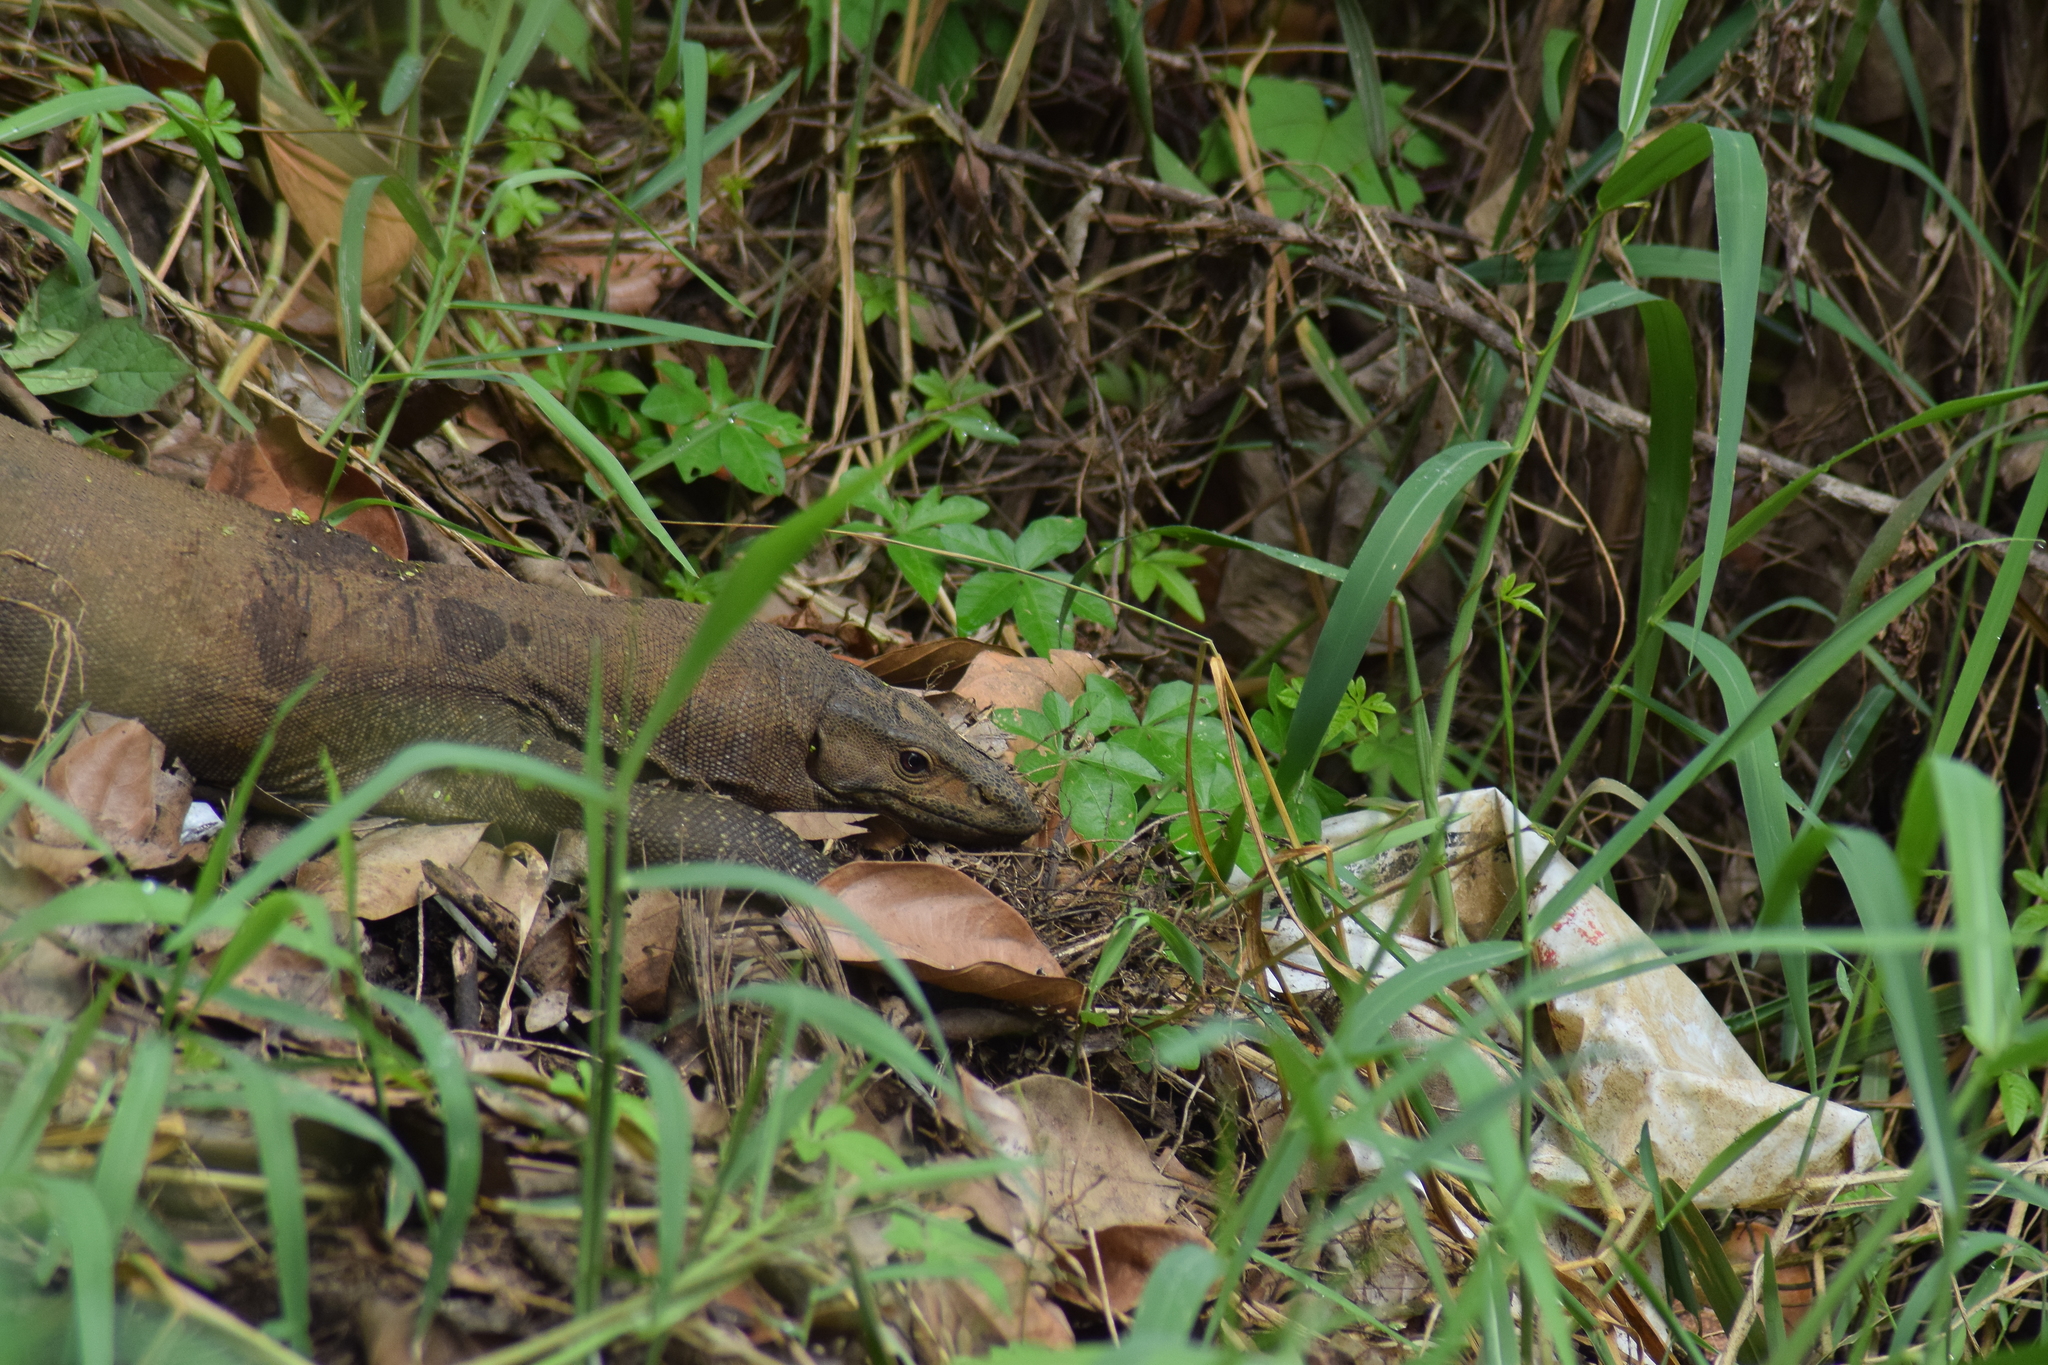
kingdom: Animalia
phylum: Chordata
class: Squamata
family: Varanidae
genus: Varanus
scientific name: Varanus bengalensis
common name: Bengal monitor
